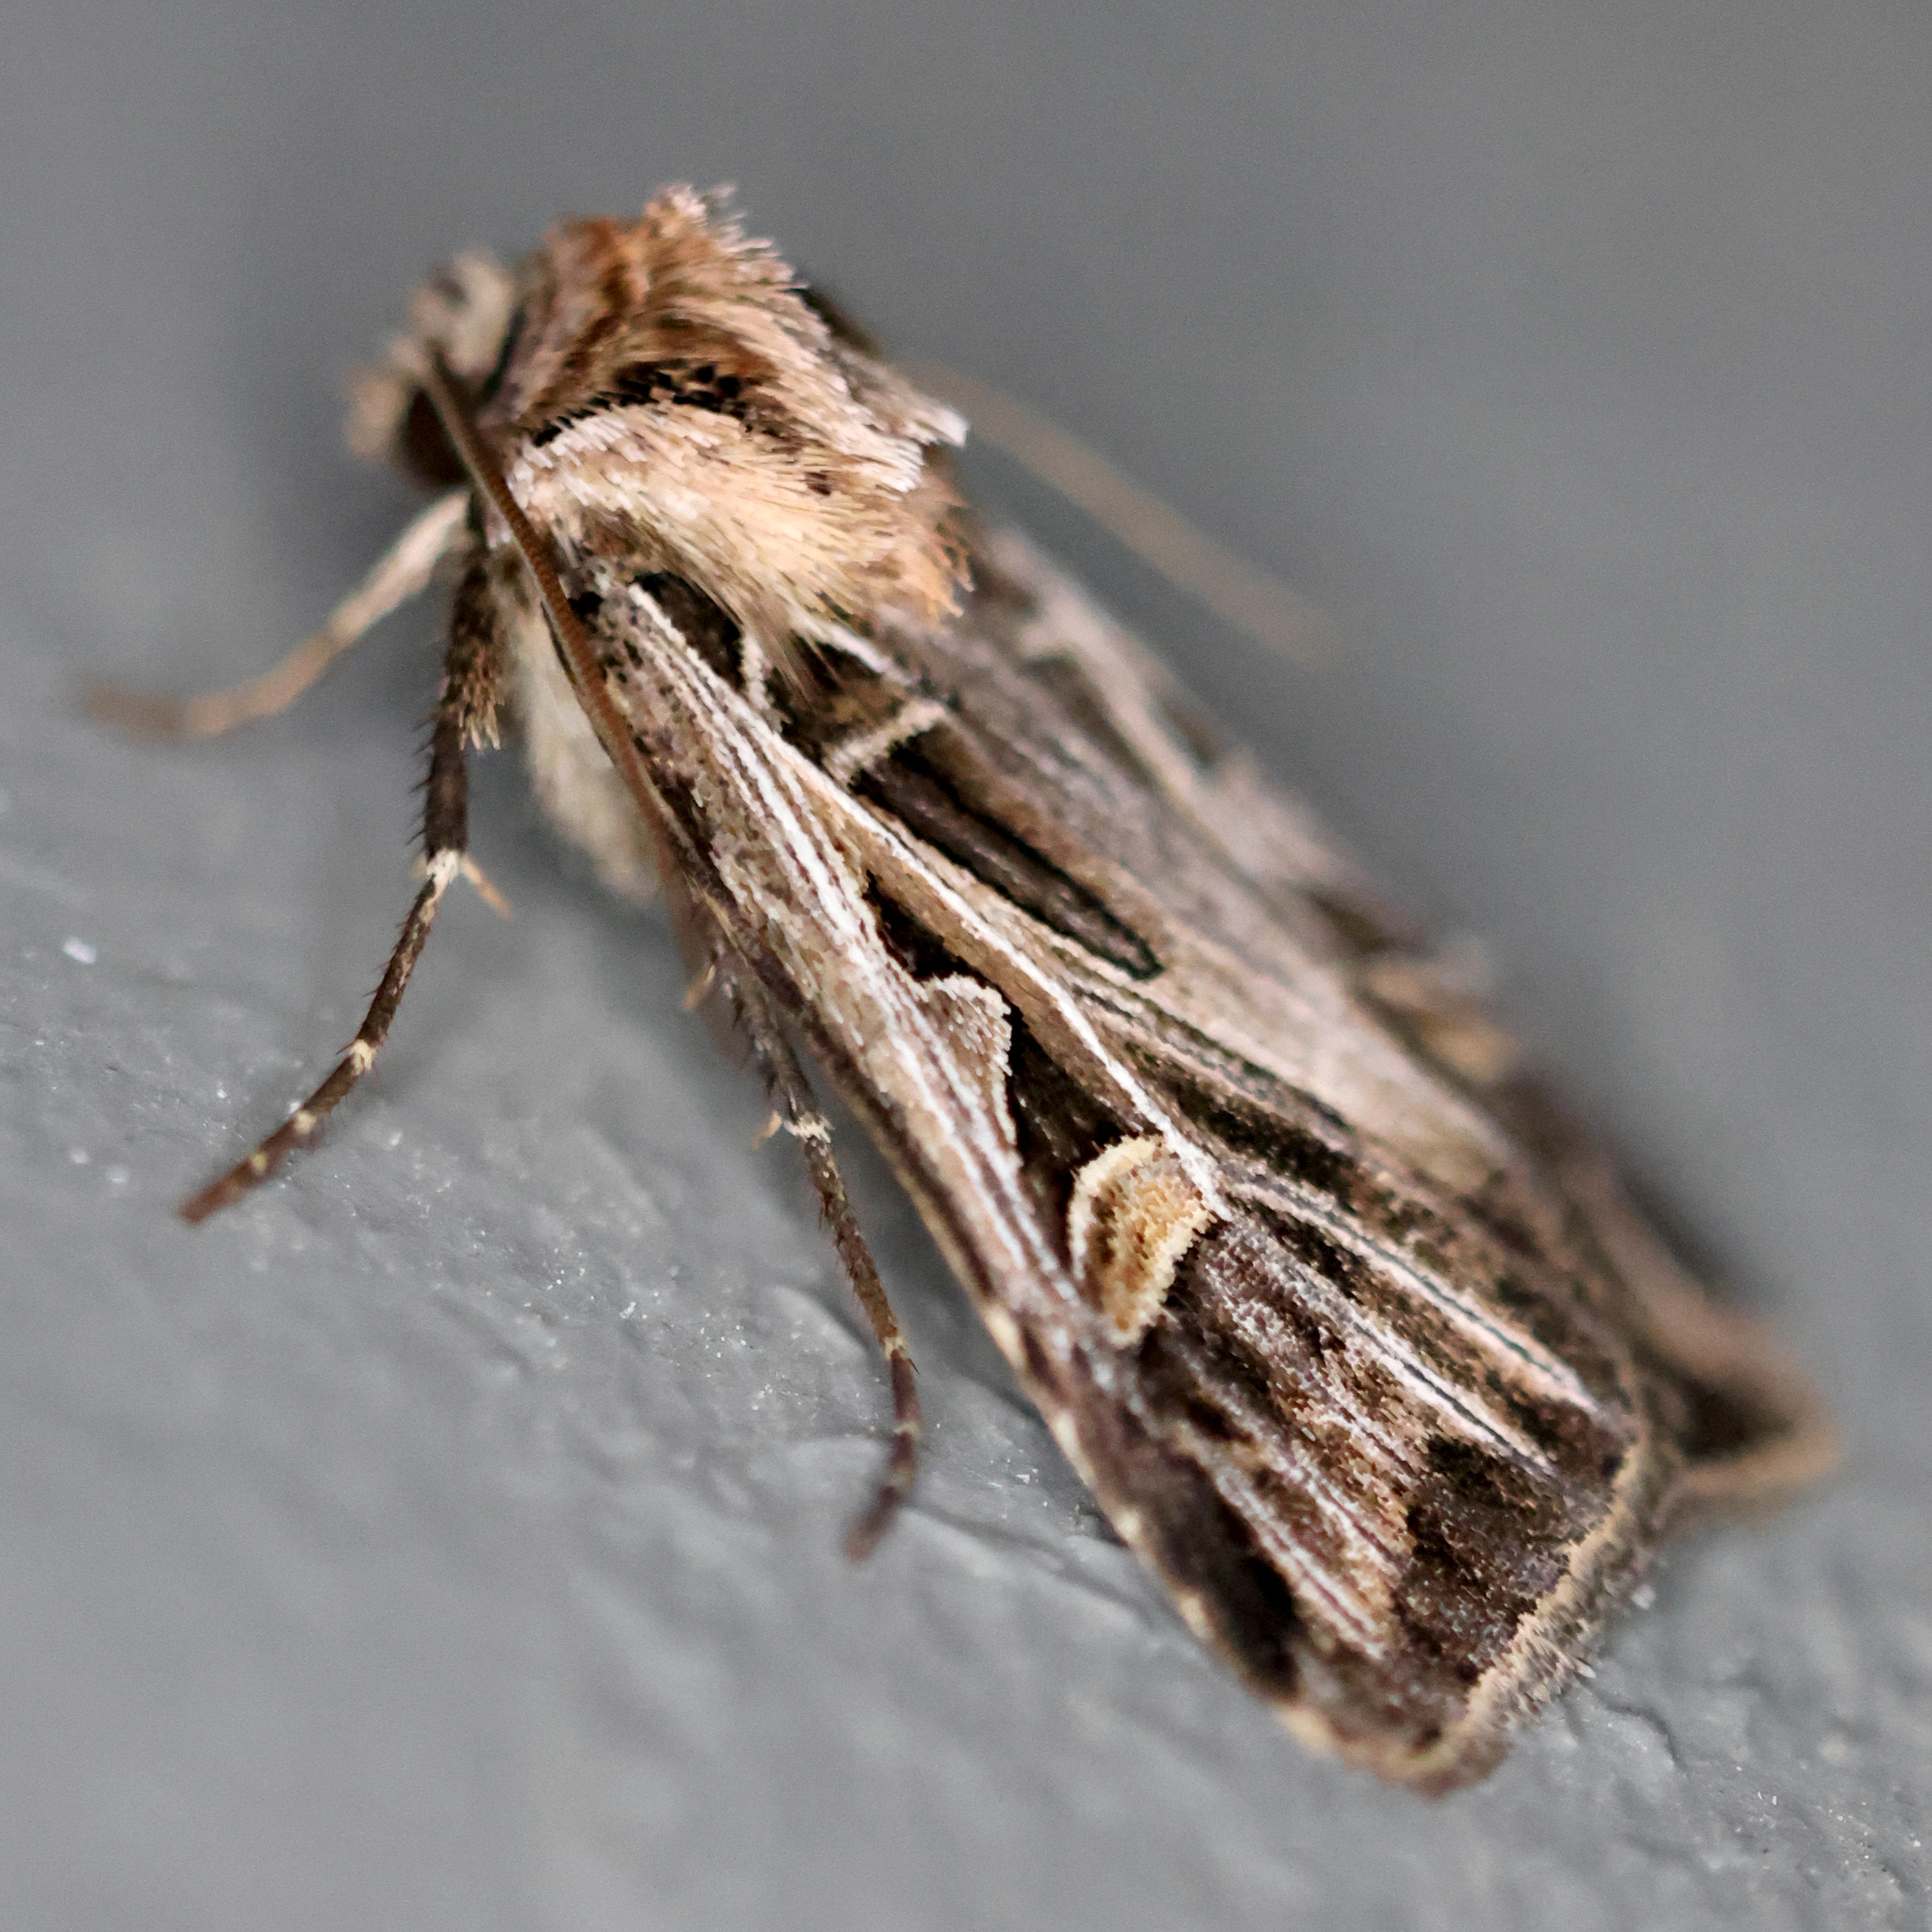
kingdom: Animalia
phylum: Arthropoda
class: Insecta
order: Lepidoptera
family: Noctuidae
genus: Feltia
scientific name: Feltia jaculifera
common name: Dingy cutworm moth
